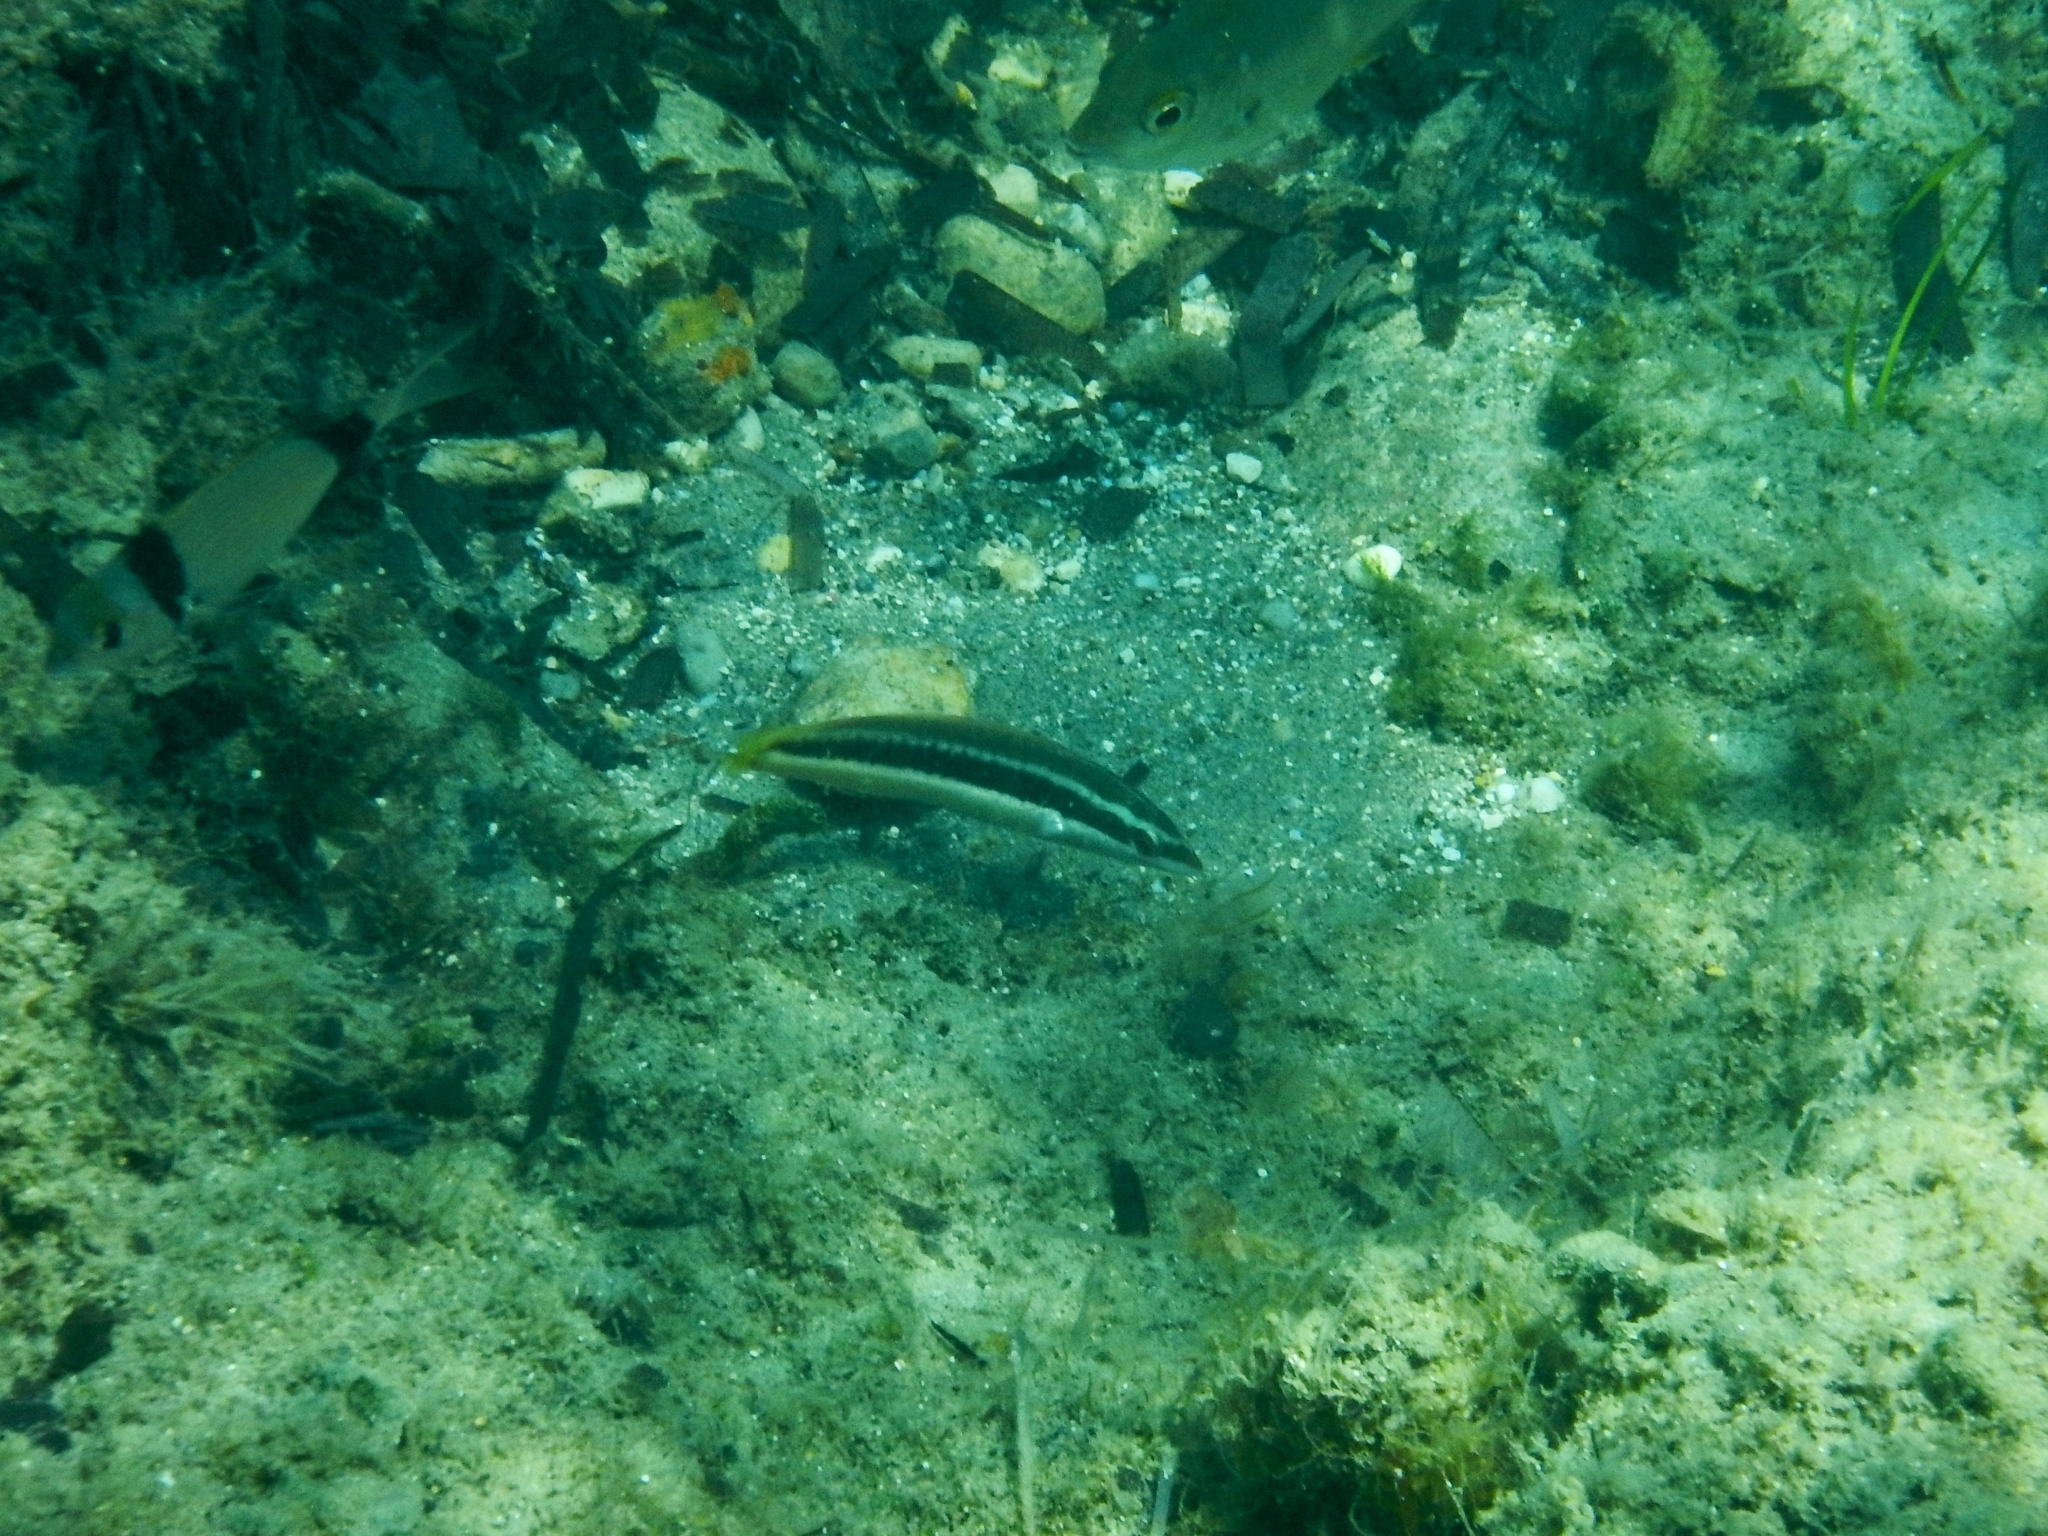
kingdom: Animalia
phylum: Chordata
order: Perciformes
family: Labridae
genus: Coris
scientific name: Coris julis
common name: Rainbow wrasse
